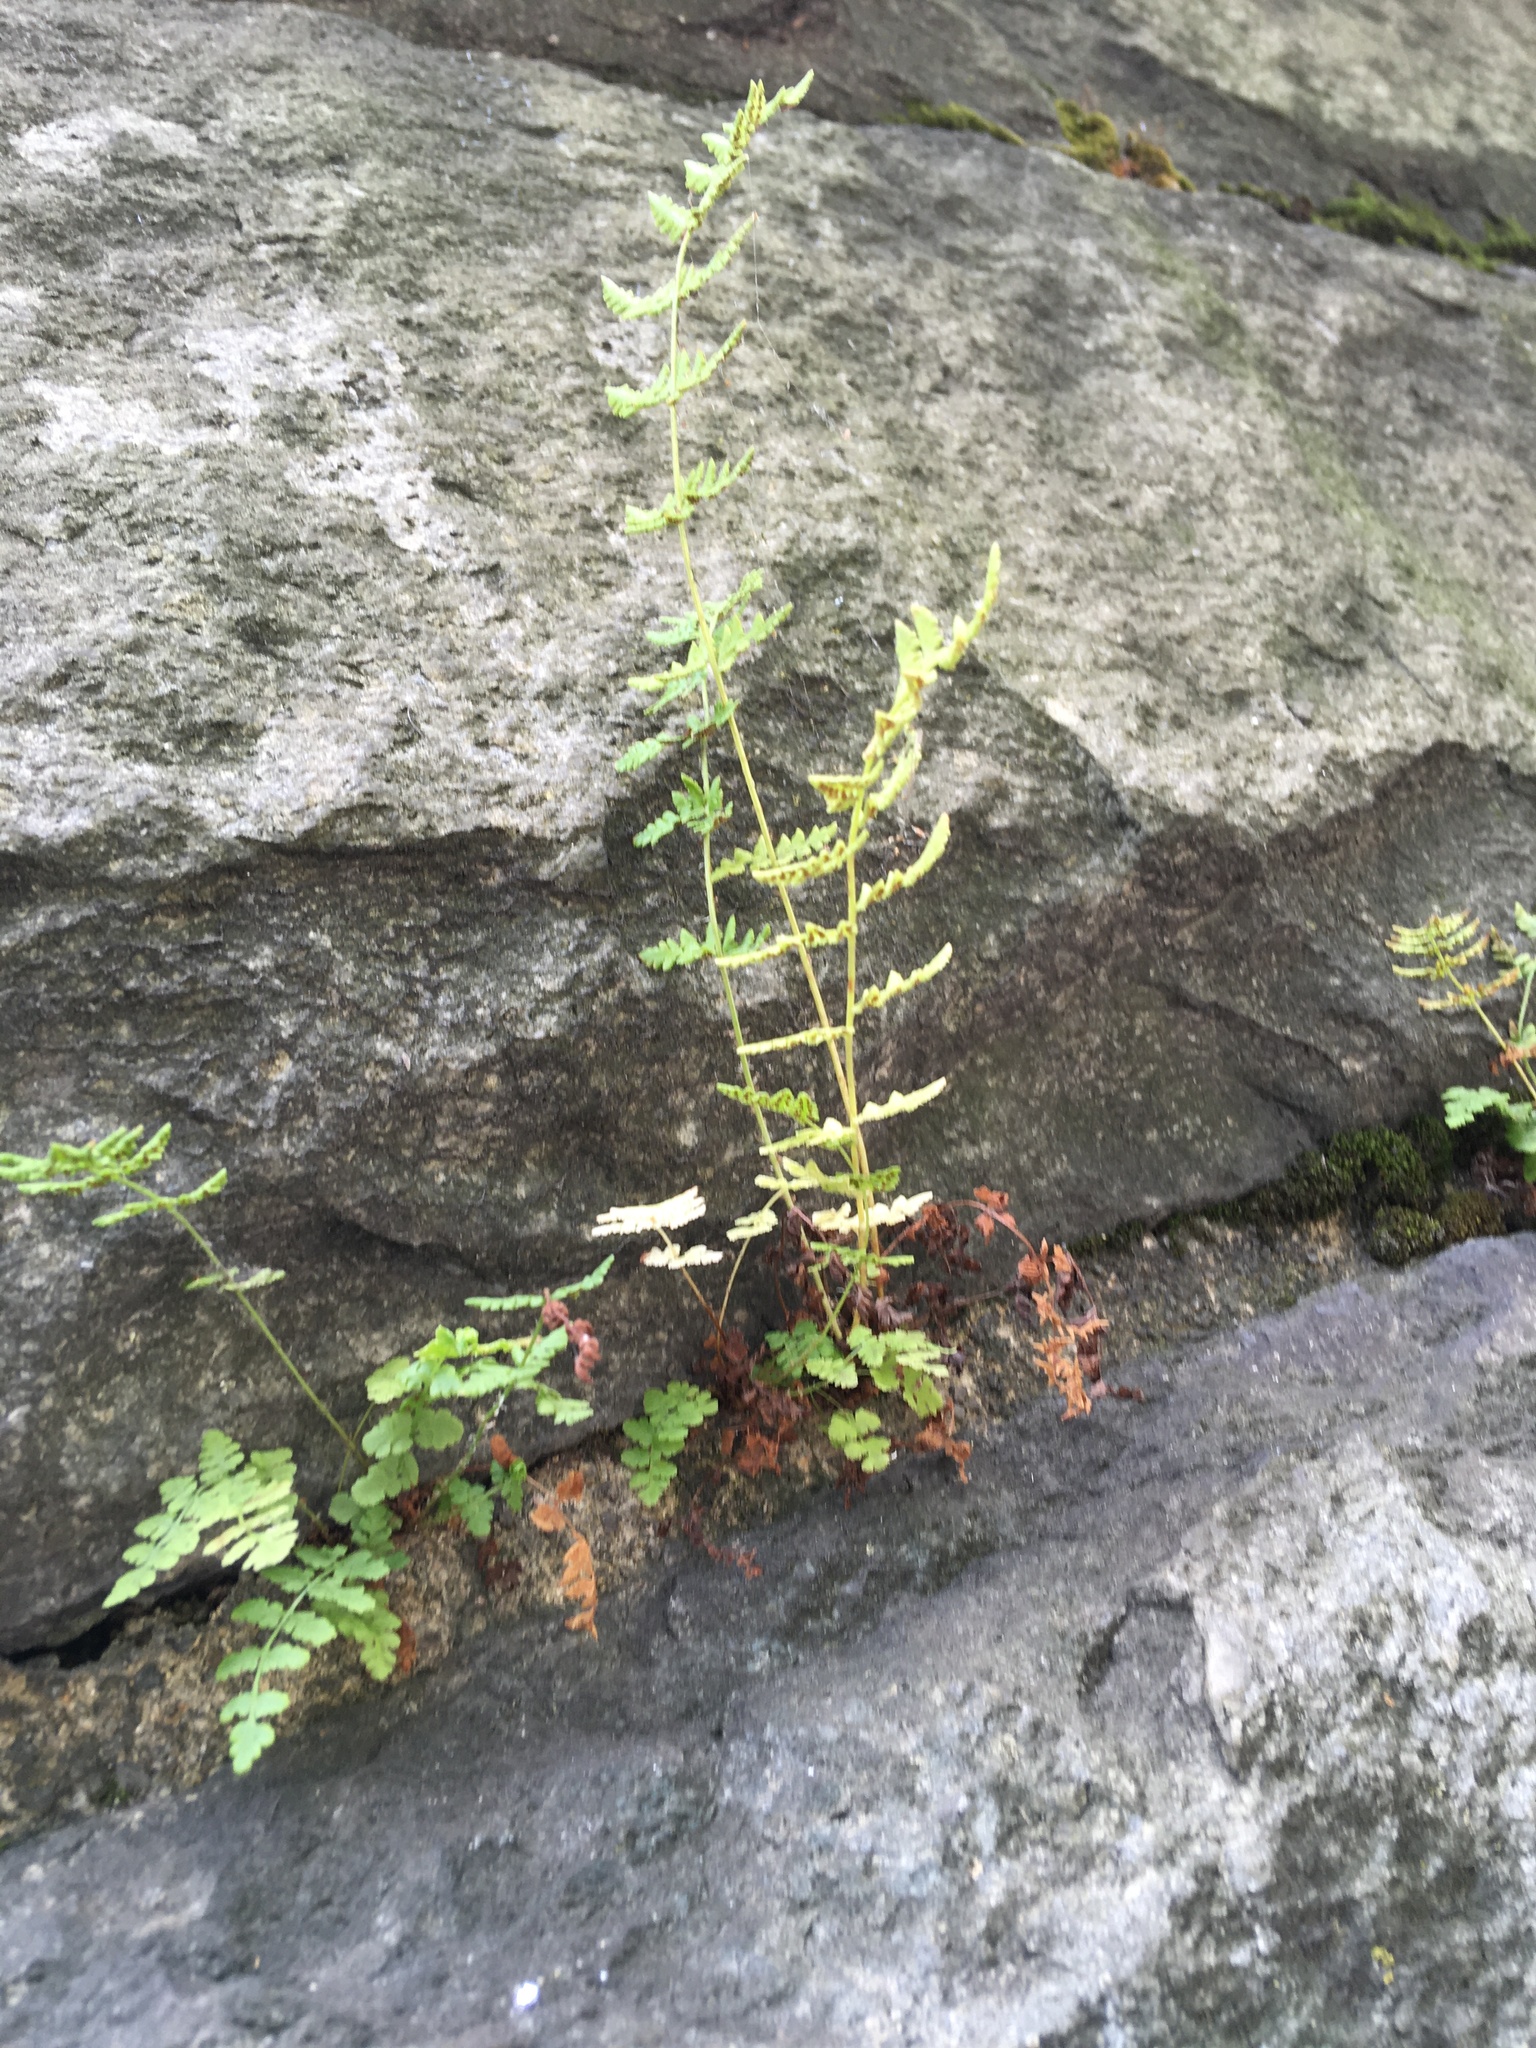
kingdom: Plantae
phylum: Tracheophyta
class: Polypodiopsida
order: Polypodiales
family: Woodsiaceae
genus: Physematium
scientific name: Physematium obtusum
